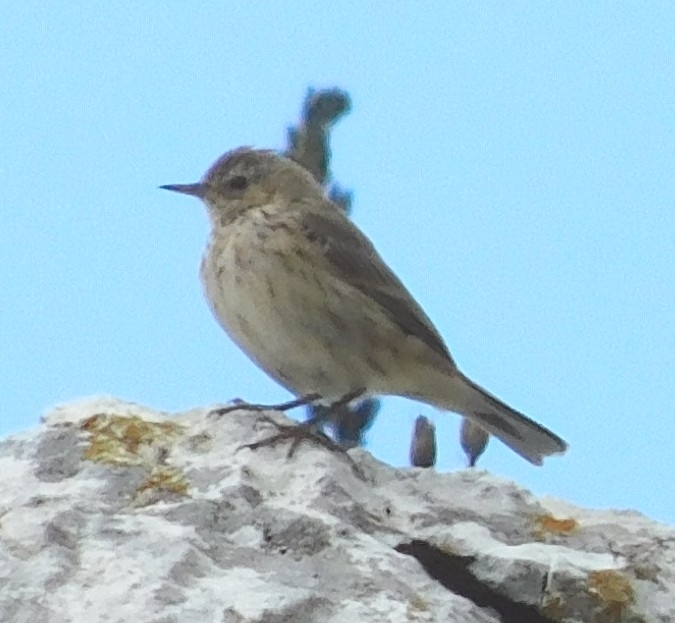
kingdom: Animalia
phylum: Chordata
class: Aves
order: Passeriformes
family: Motacillidae
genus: Anthus
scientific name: Anthus spinoletta
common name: Water pipit
